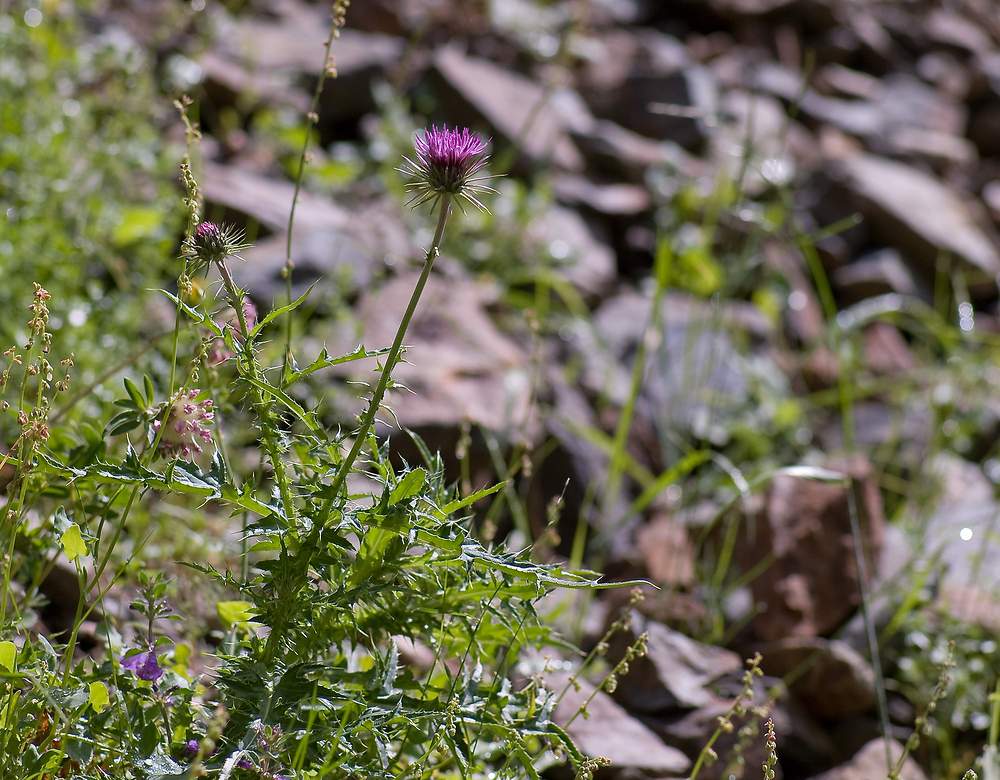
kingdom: Plantae
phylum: Tracheophyta
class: Magnoliopsida
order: Asterales
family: Asteraceae
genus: Carduus
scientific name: Carduus carlinifolius
